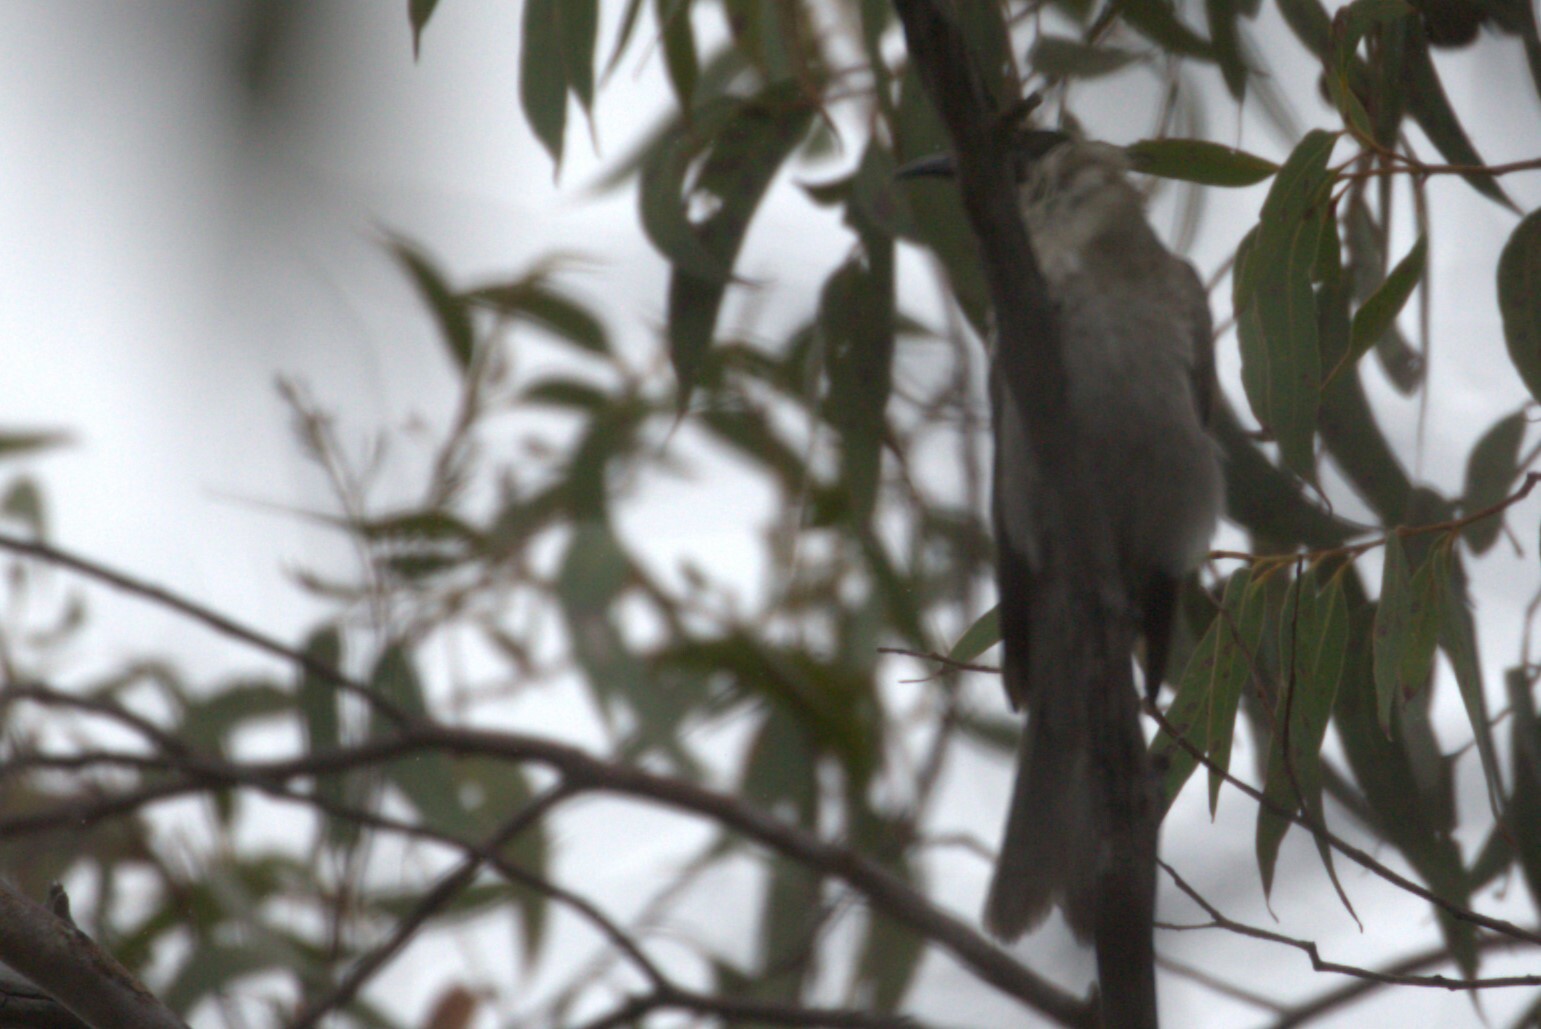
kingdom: Animalia
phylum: Chordata
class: Aves
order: Passeriformes
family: Meliphagidae
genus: Philemon
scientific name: Philemon corniculatus
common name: Noisy friarbird
